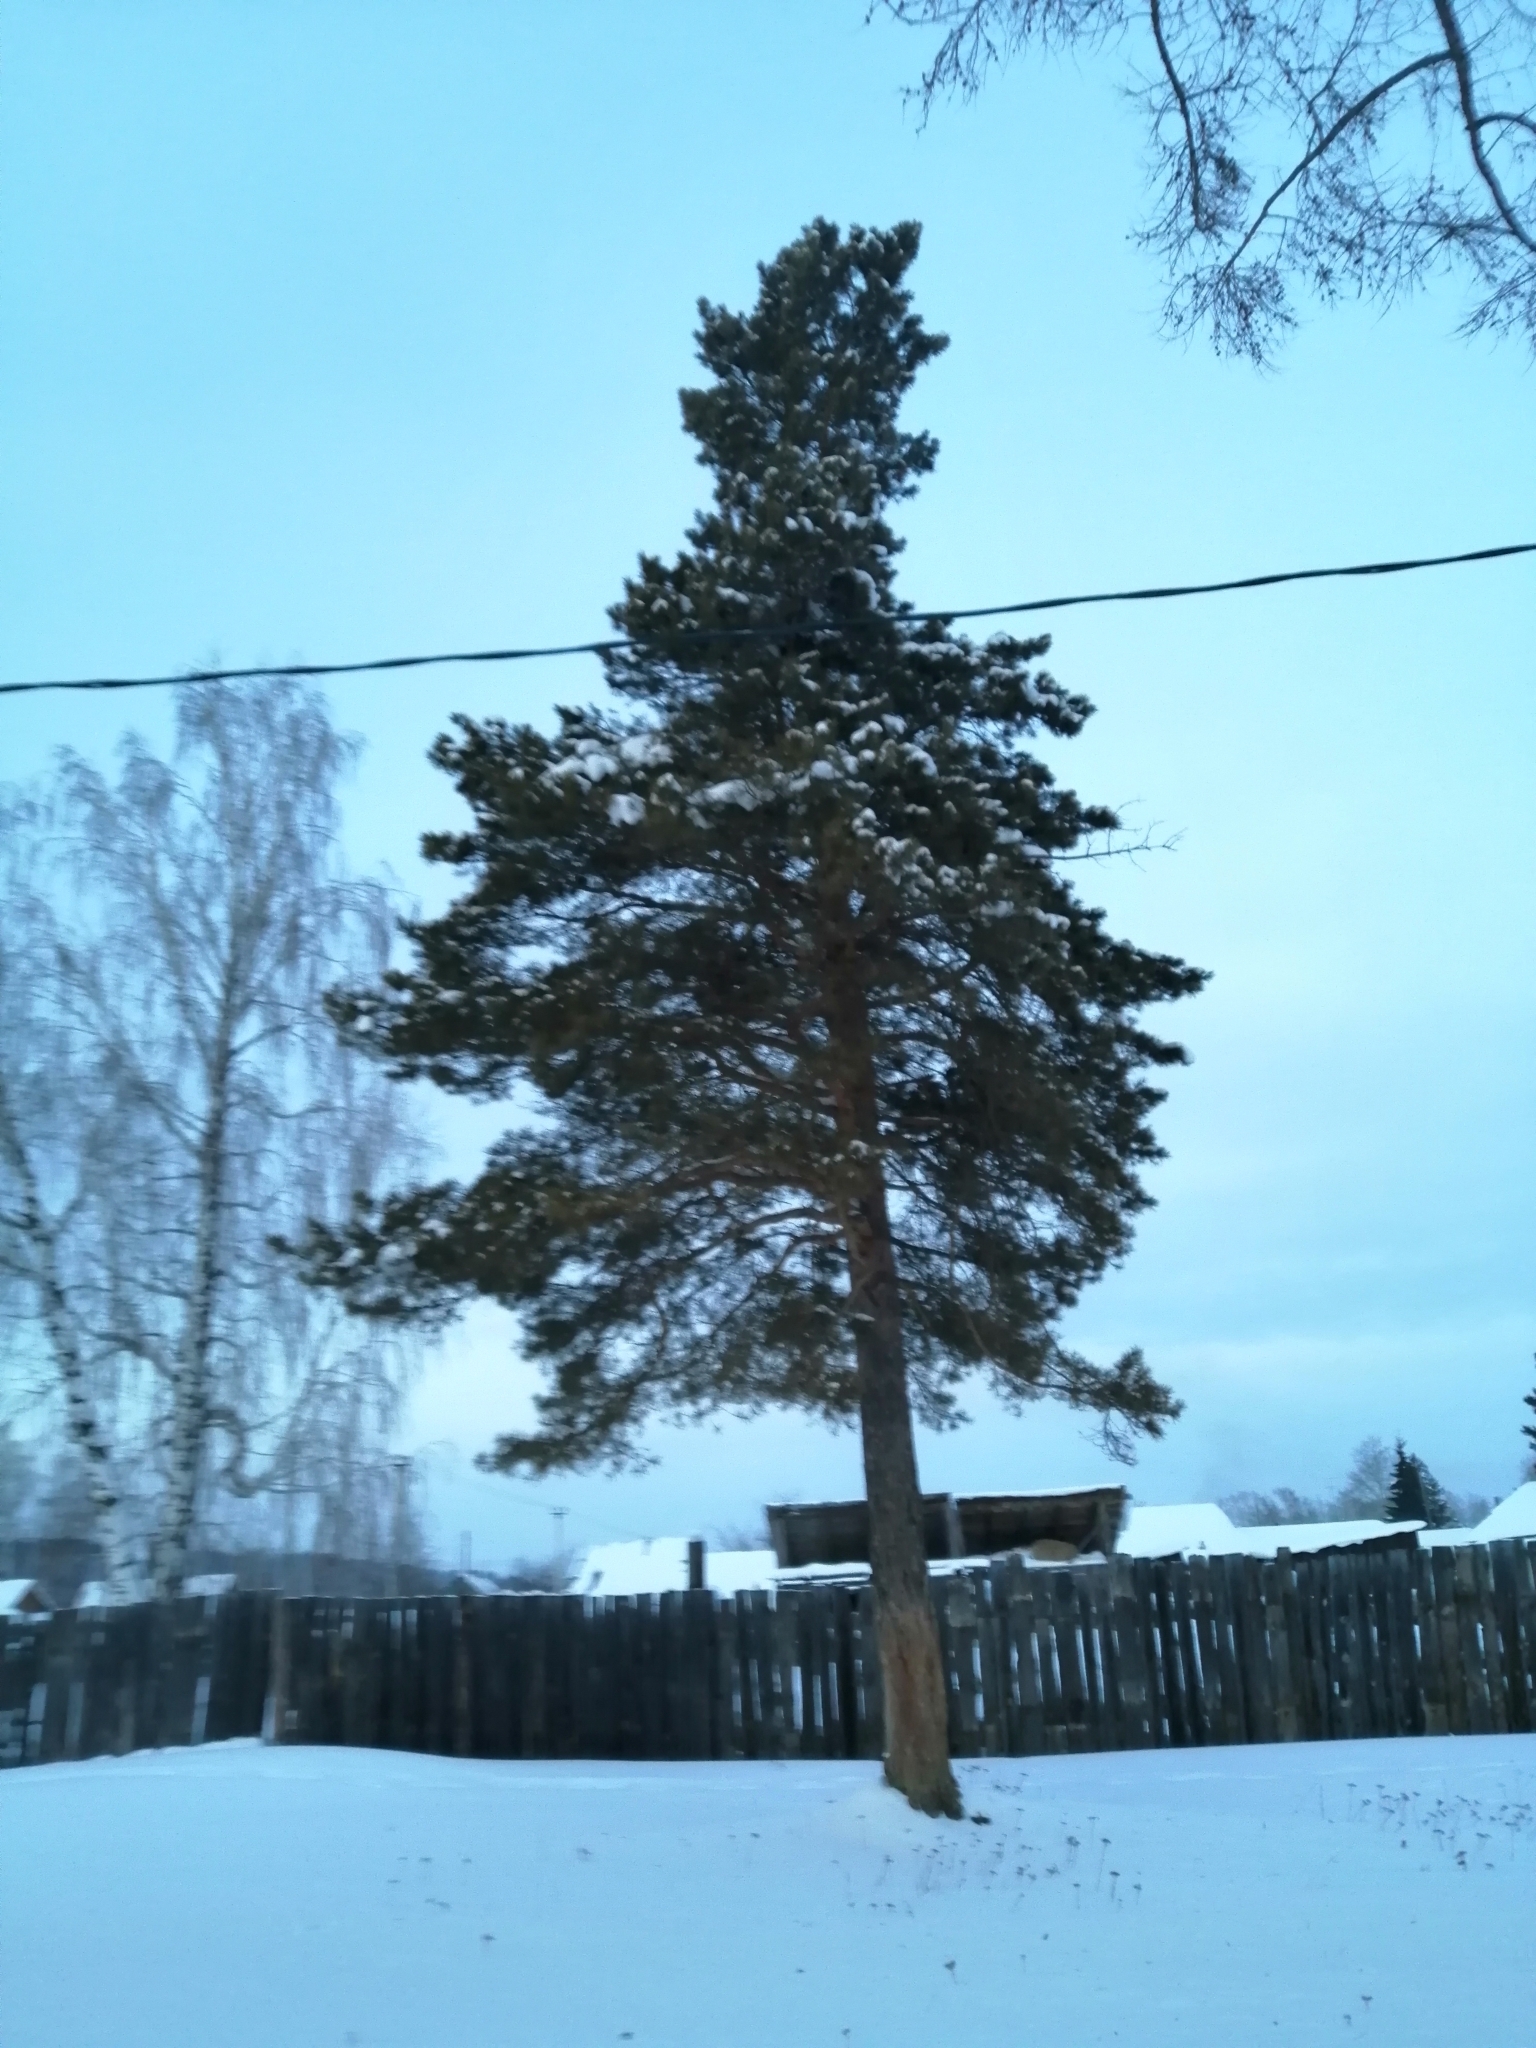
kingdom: Plantae
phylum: Tracheophyta
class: Pinopsida
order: Pinales
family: Pinaceae
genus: Pinus
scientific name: Pinus sylvestris
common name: Scots pine
